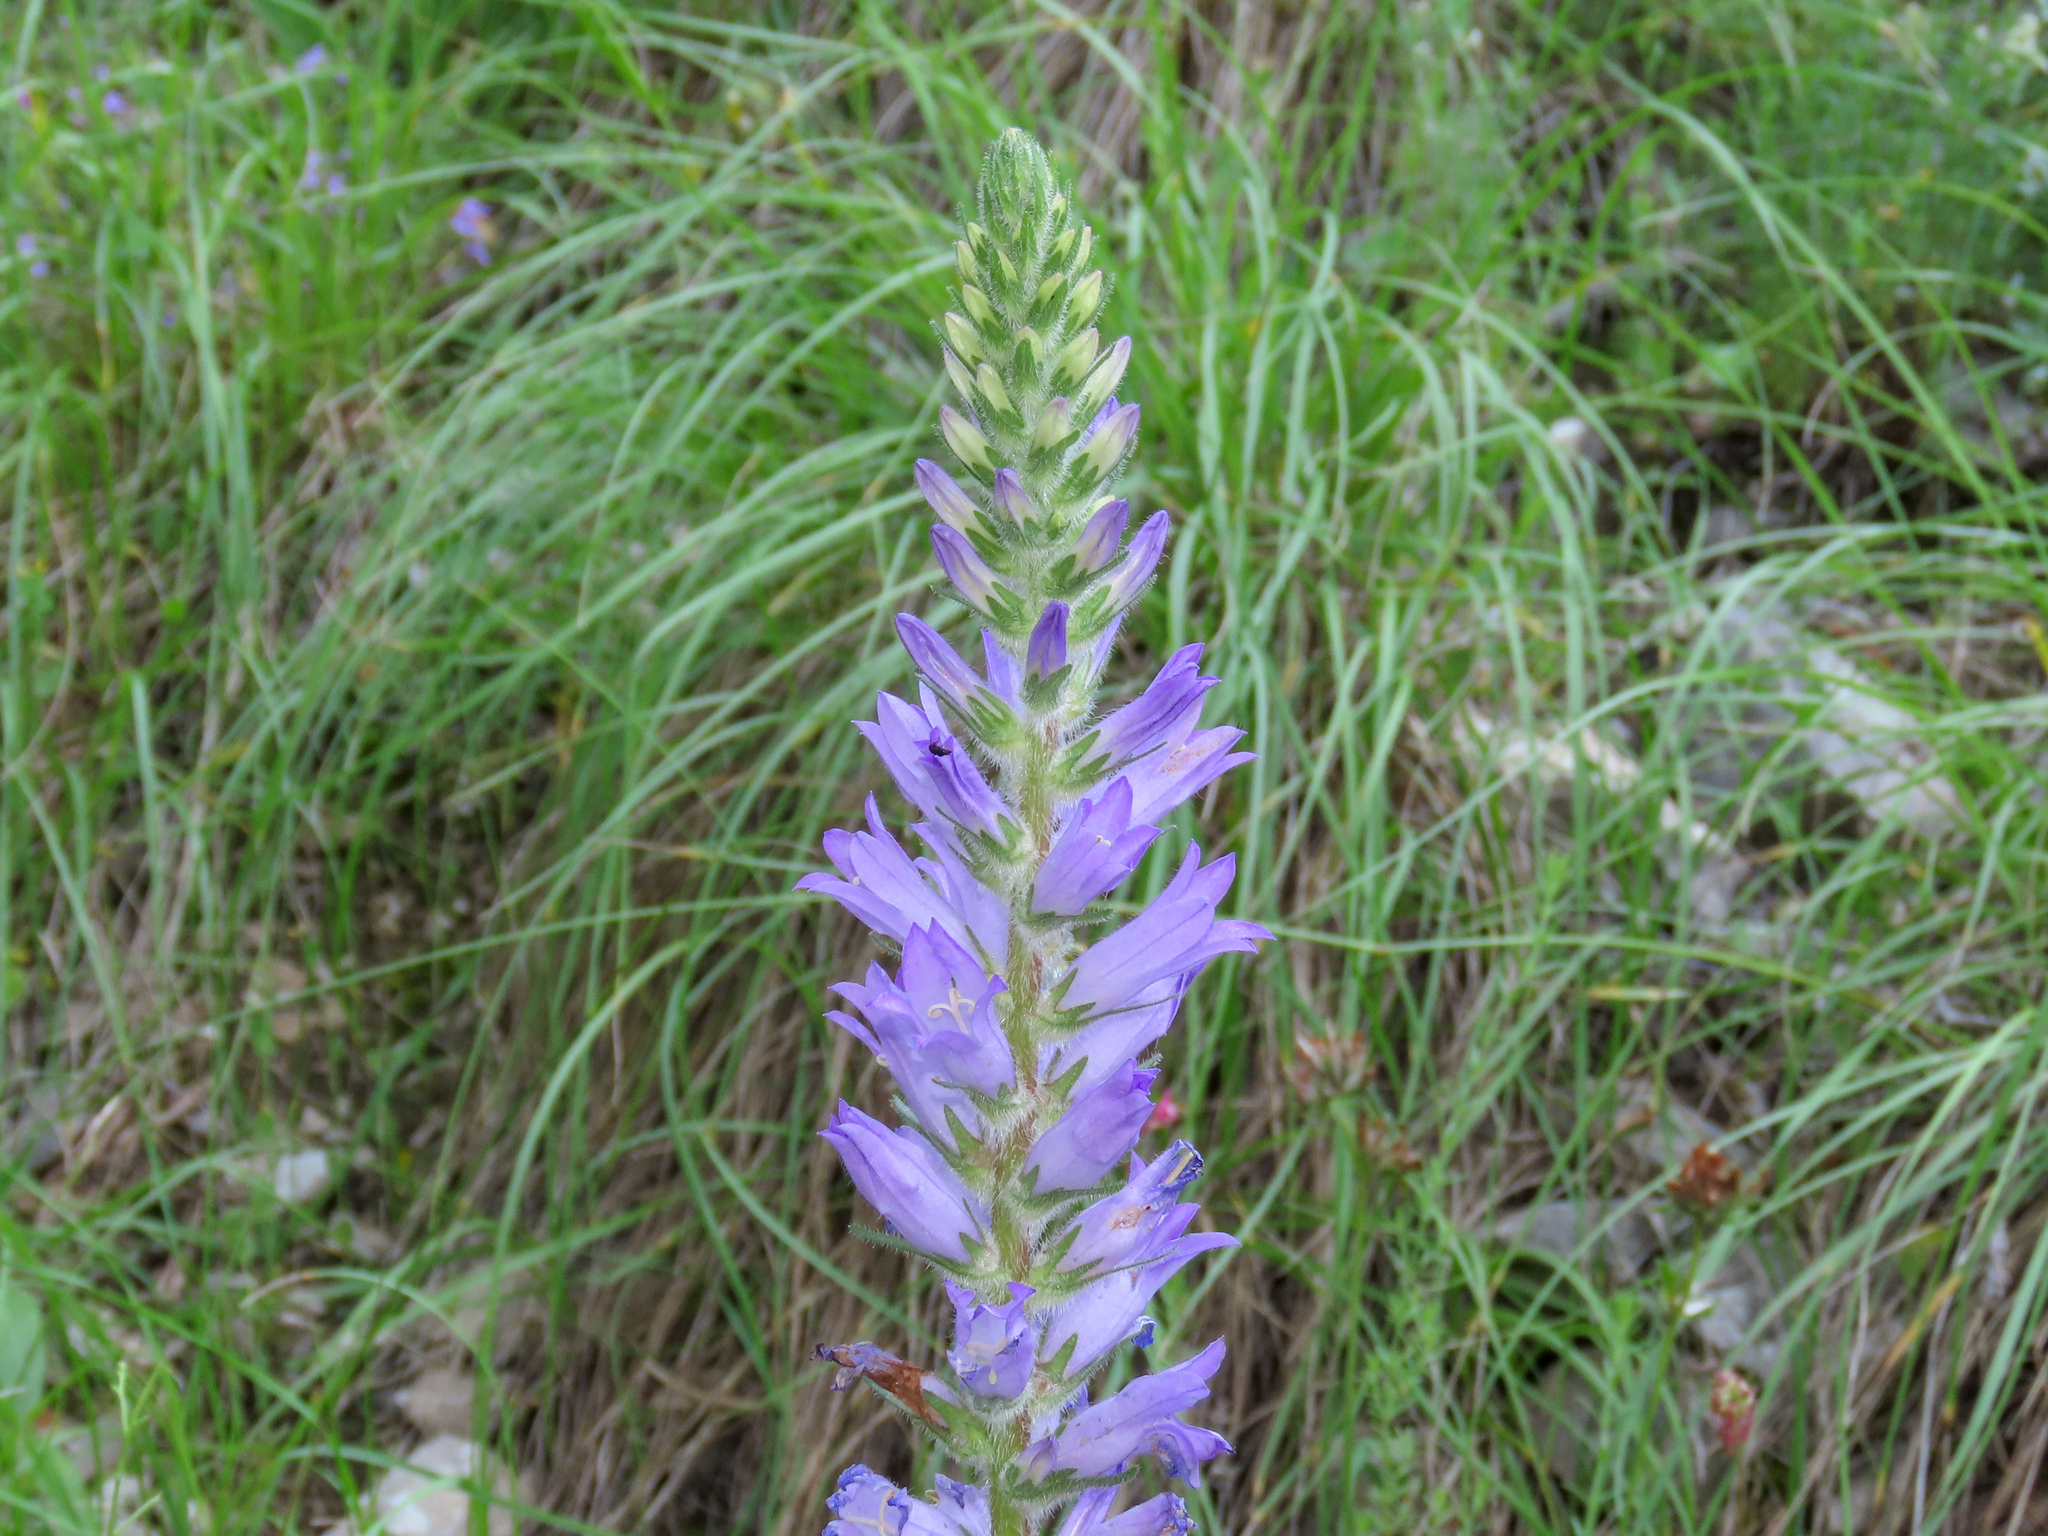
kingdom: Plantae
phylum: Tracheophyta
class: Magnoliopsida
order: Asterales
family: Campanulaceae
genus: Campanula
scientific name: Campanula spicata
